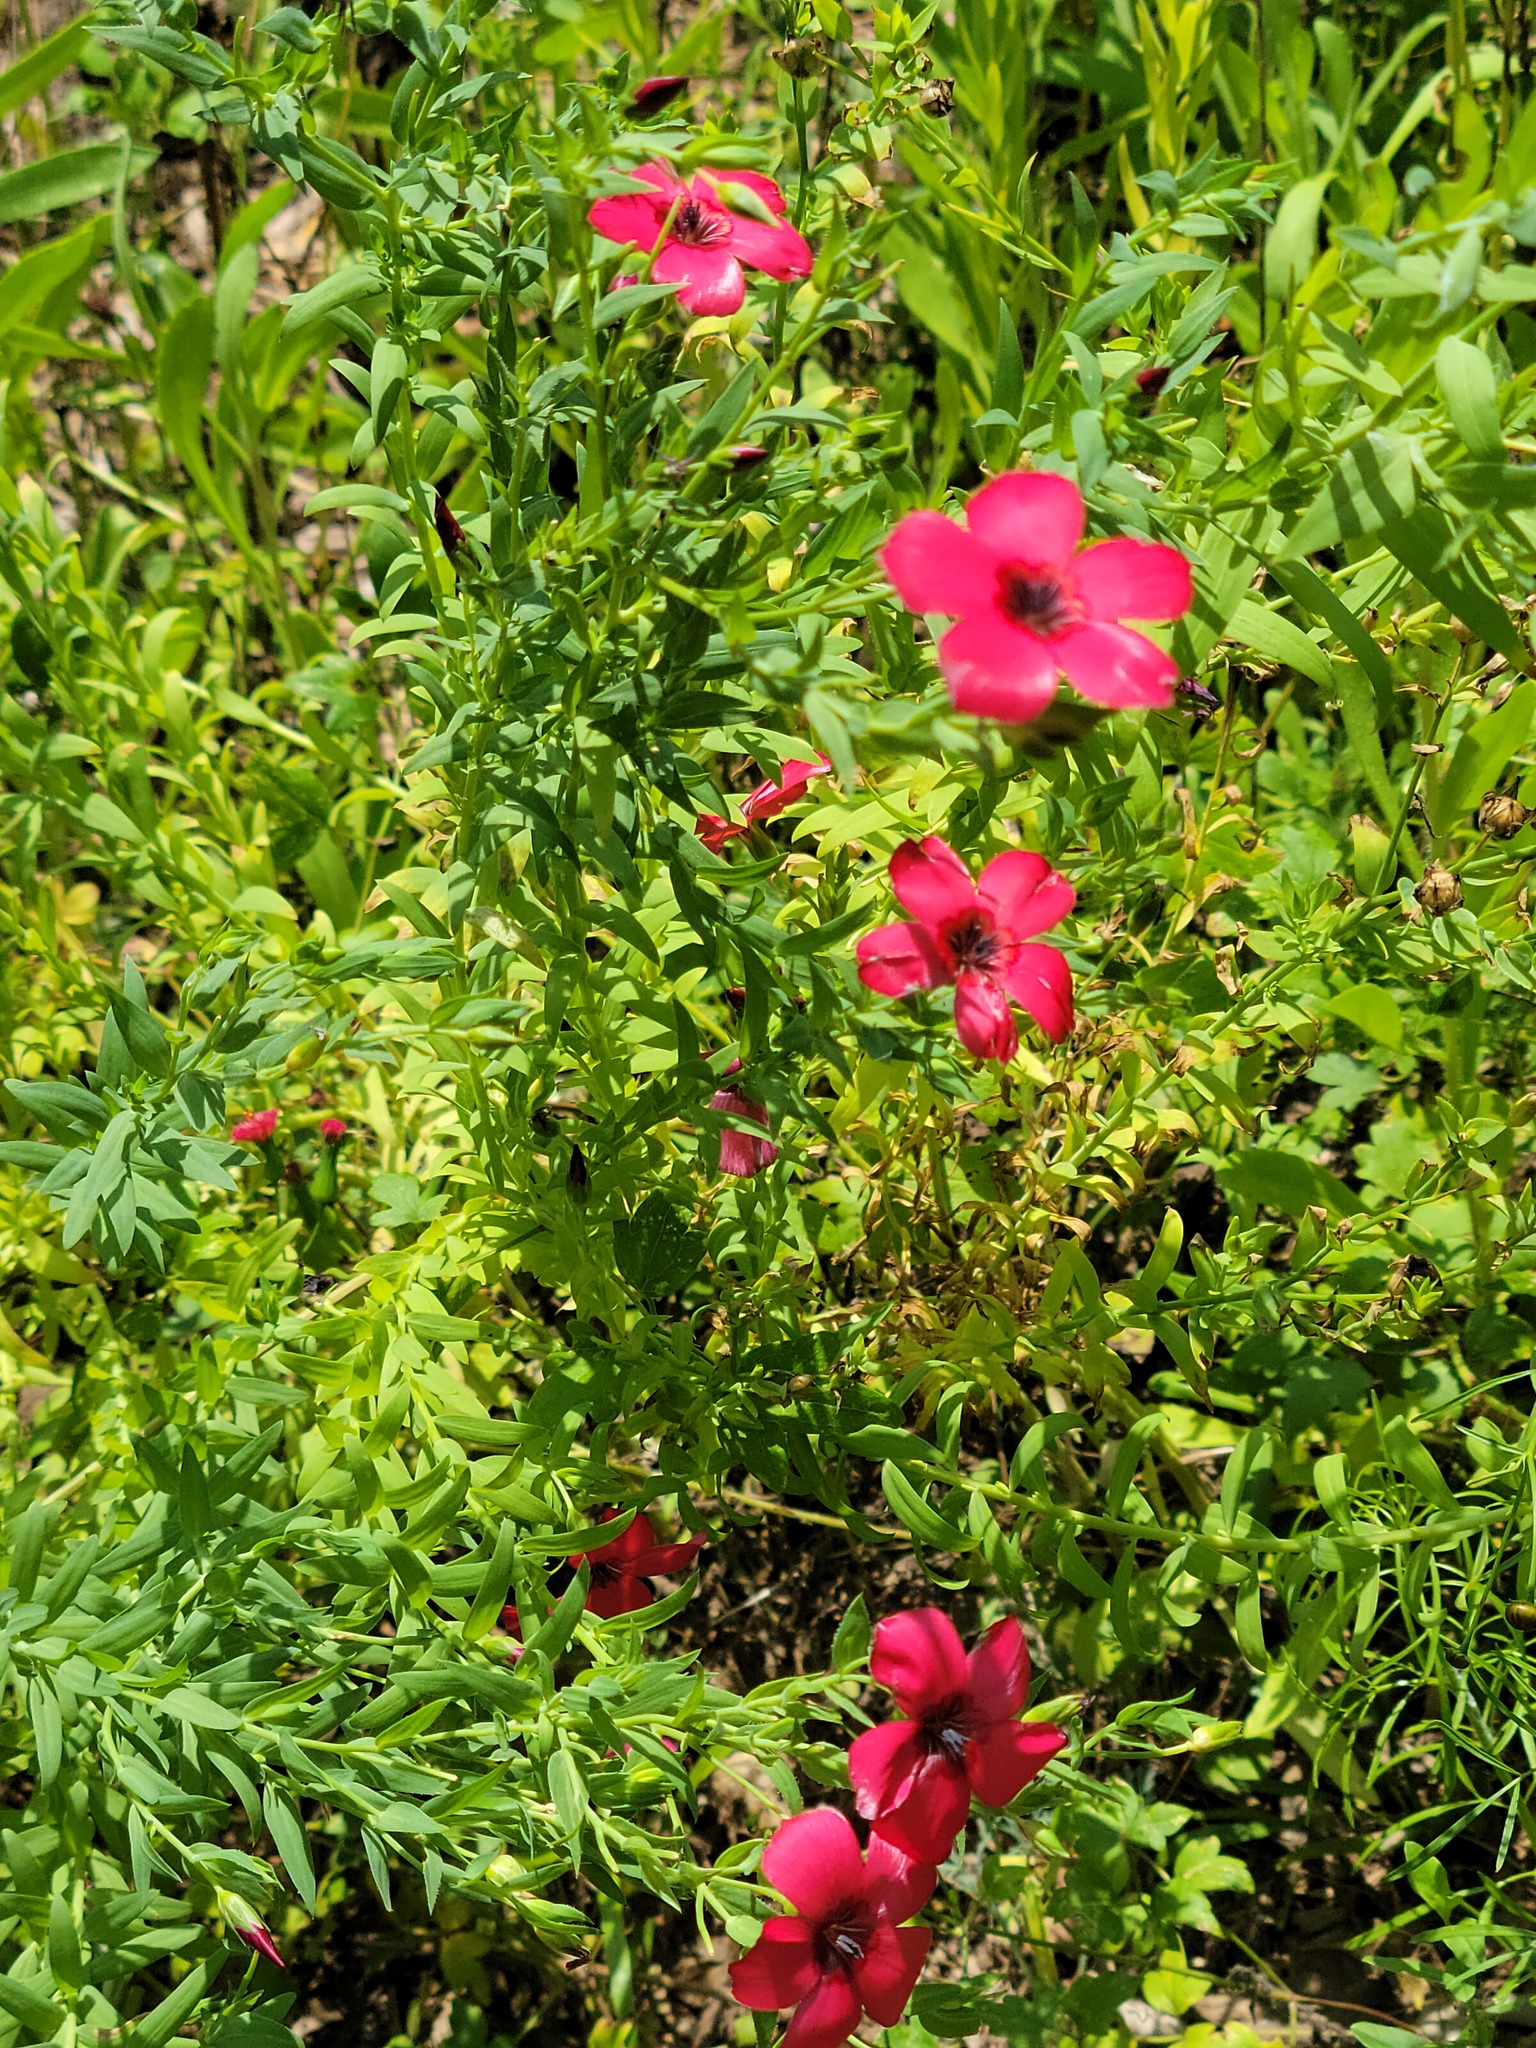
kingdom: Plantae
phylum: Tracheophyta
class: Magnoliopsida
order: Malpighiales
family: Linaceae
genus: Linum
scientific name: Linum grandiflorum
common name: Crimson flax
